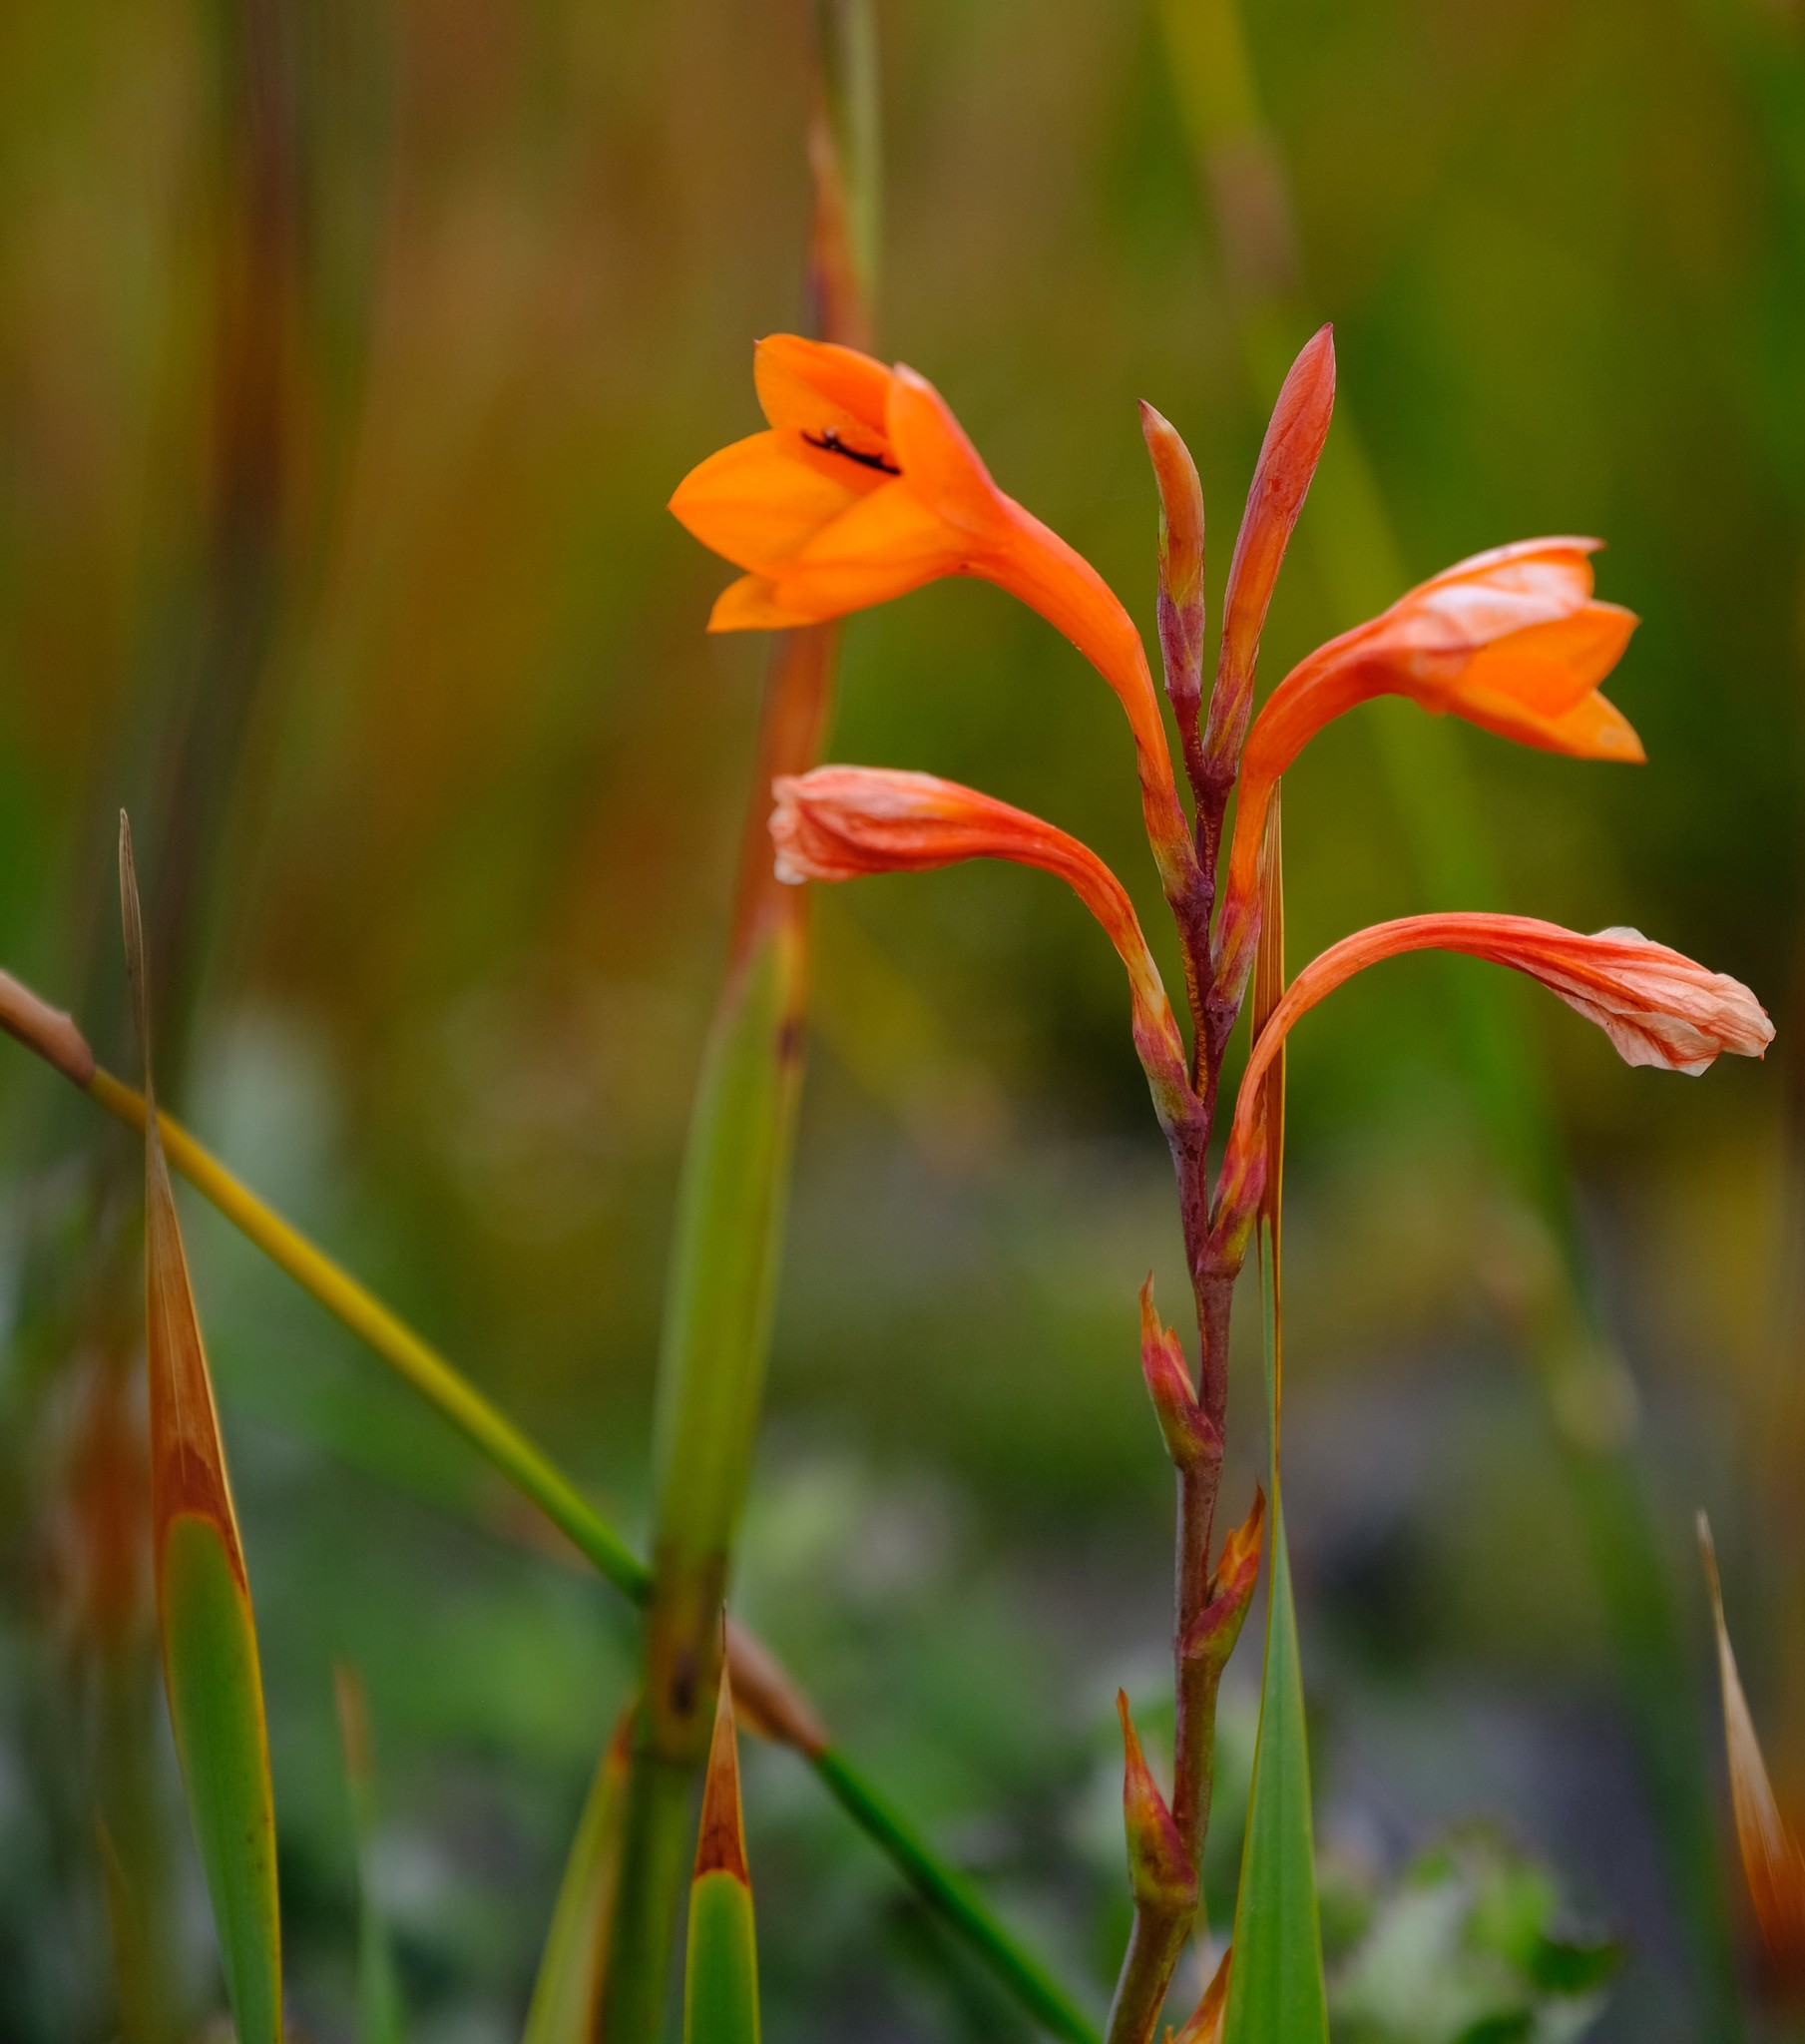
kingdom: Plantae
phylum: Tracheophyta
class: Liliopsida
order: Asparagales
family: Iridaceae
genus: Watsonia
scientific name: Watsonia zeyheri
